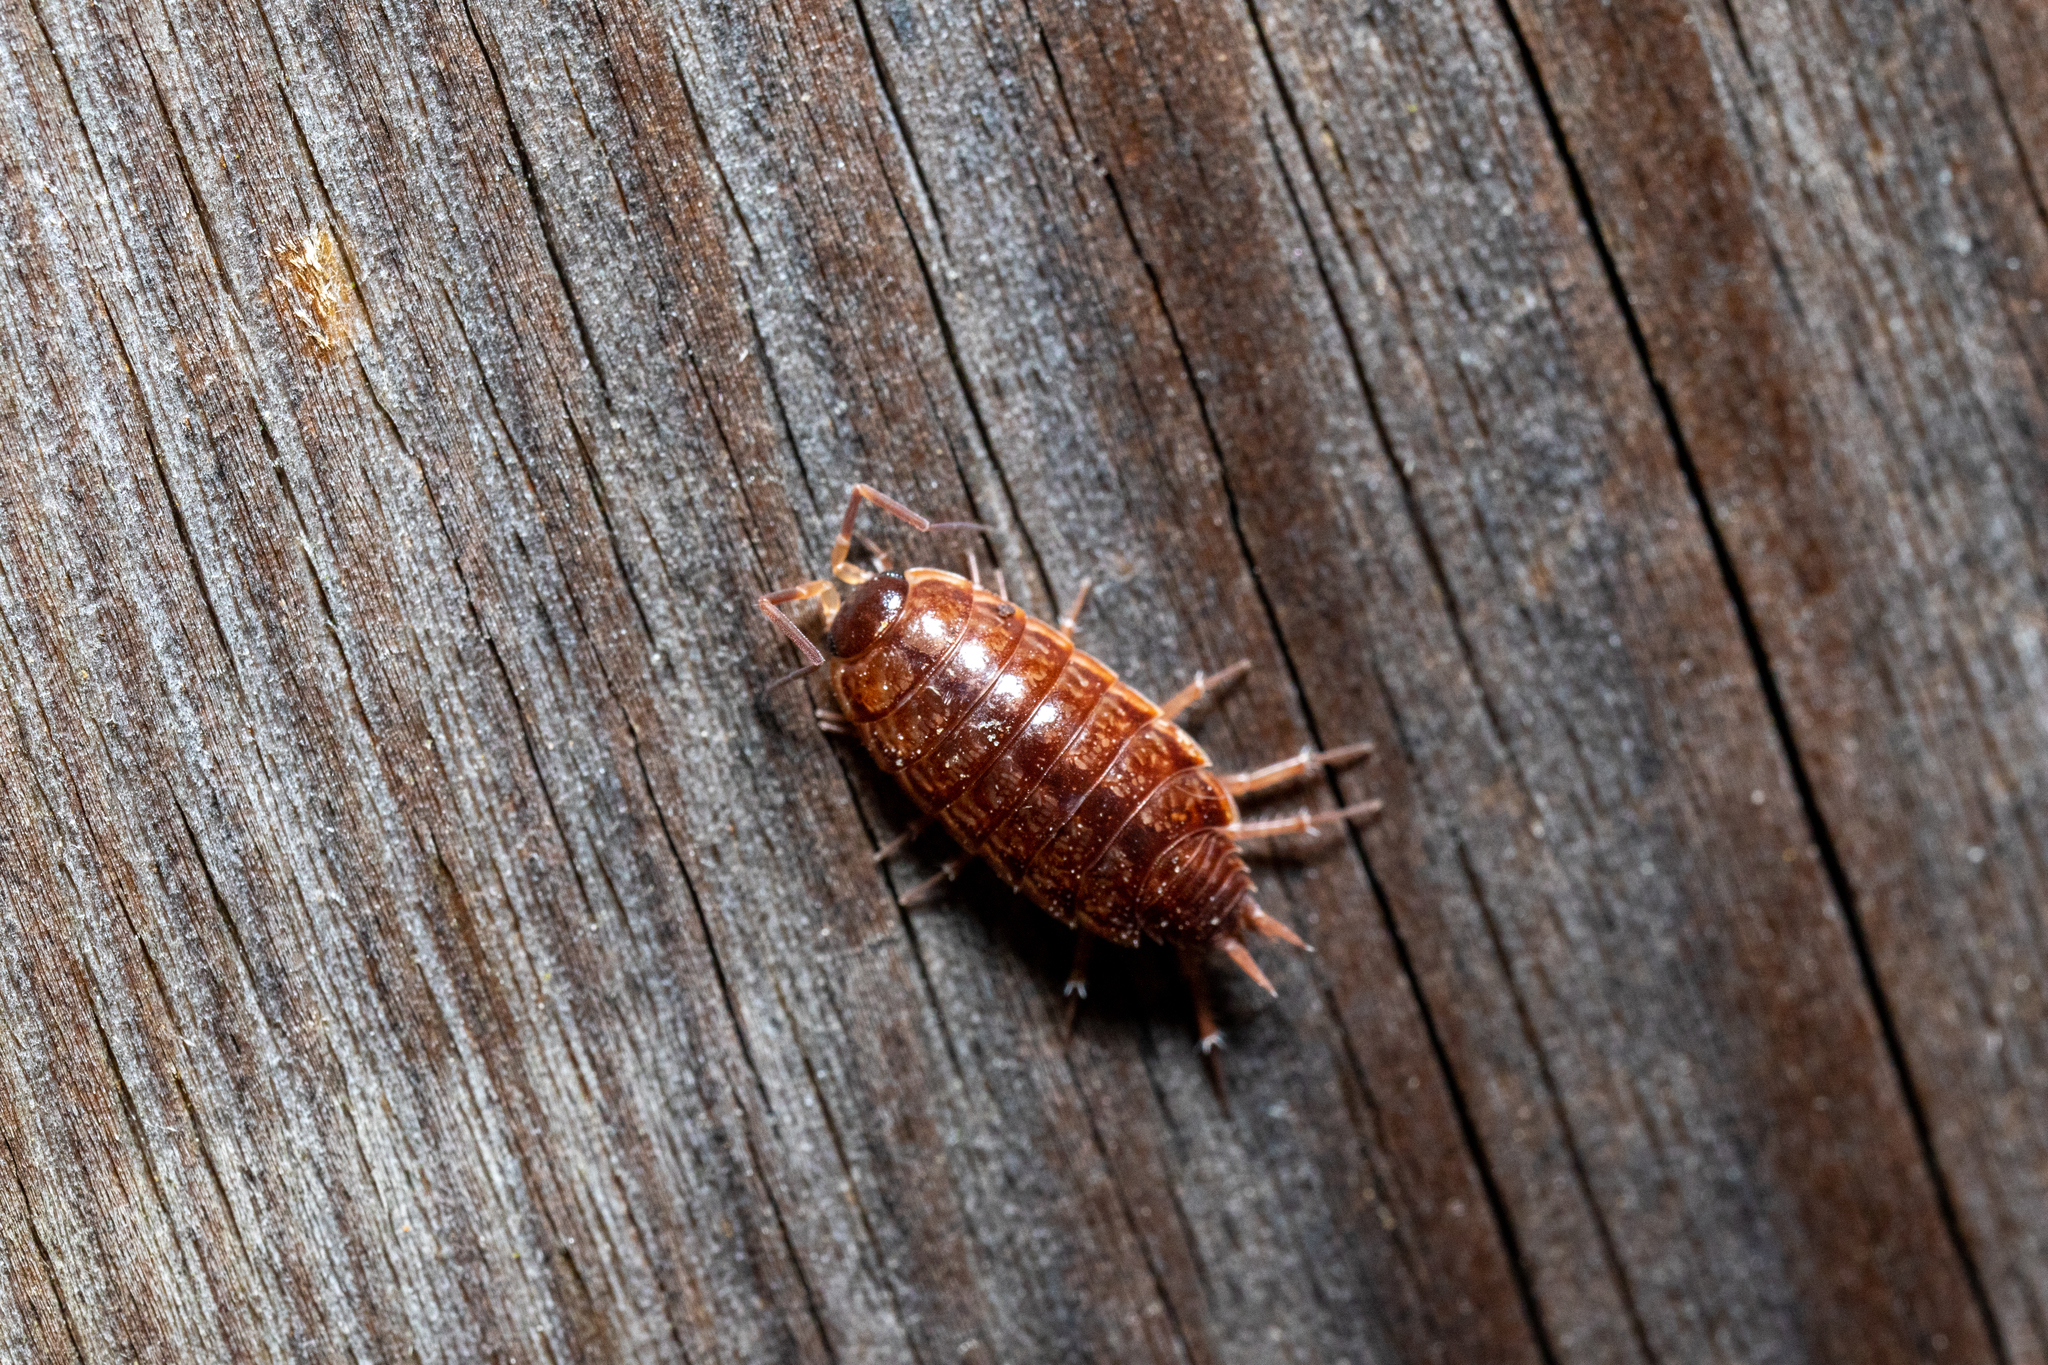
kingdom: Animalia
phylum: Arthropoda
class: Malacostraca
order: Isopoda
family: Philosciidae
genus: Philoscia
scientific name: Philoscia muscorum
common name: Common striped woodlouse
